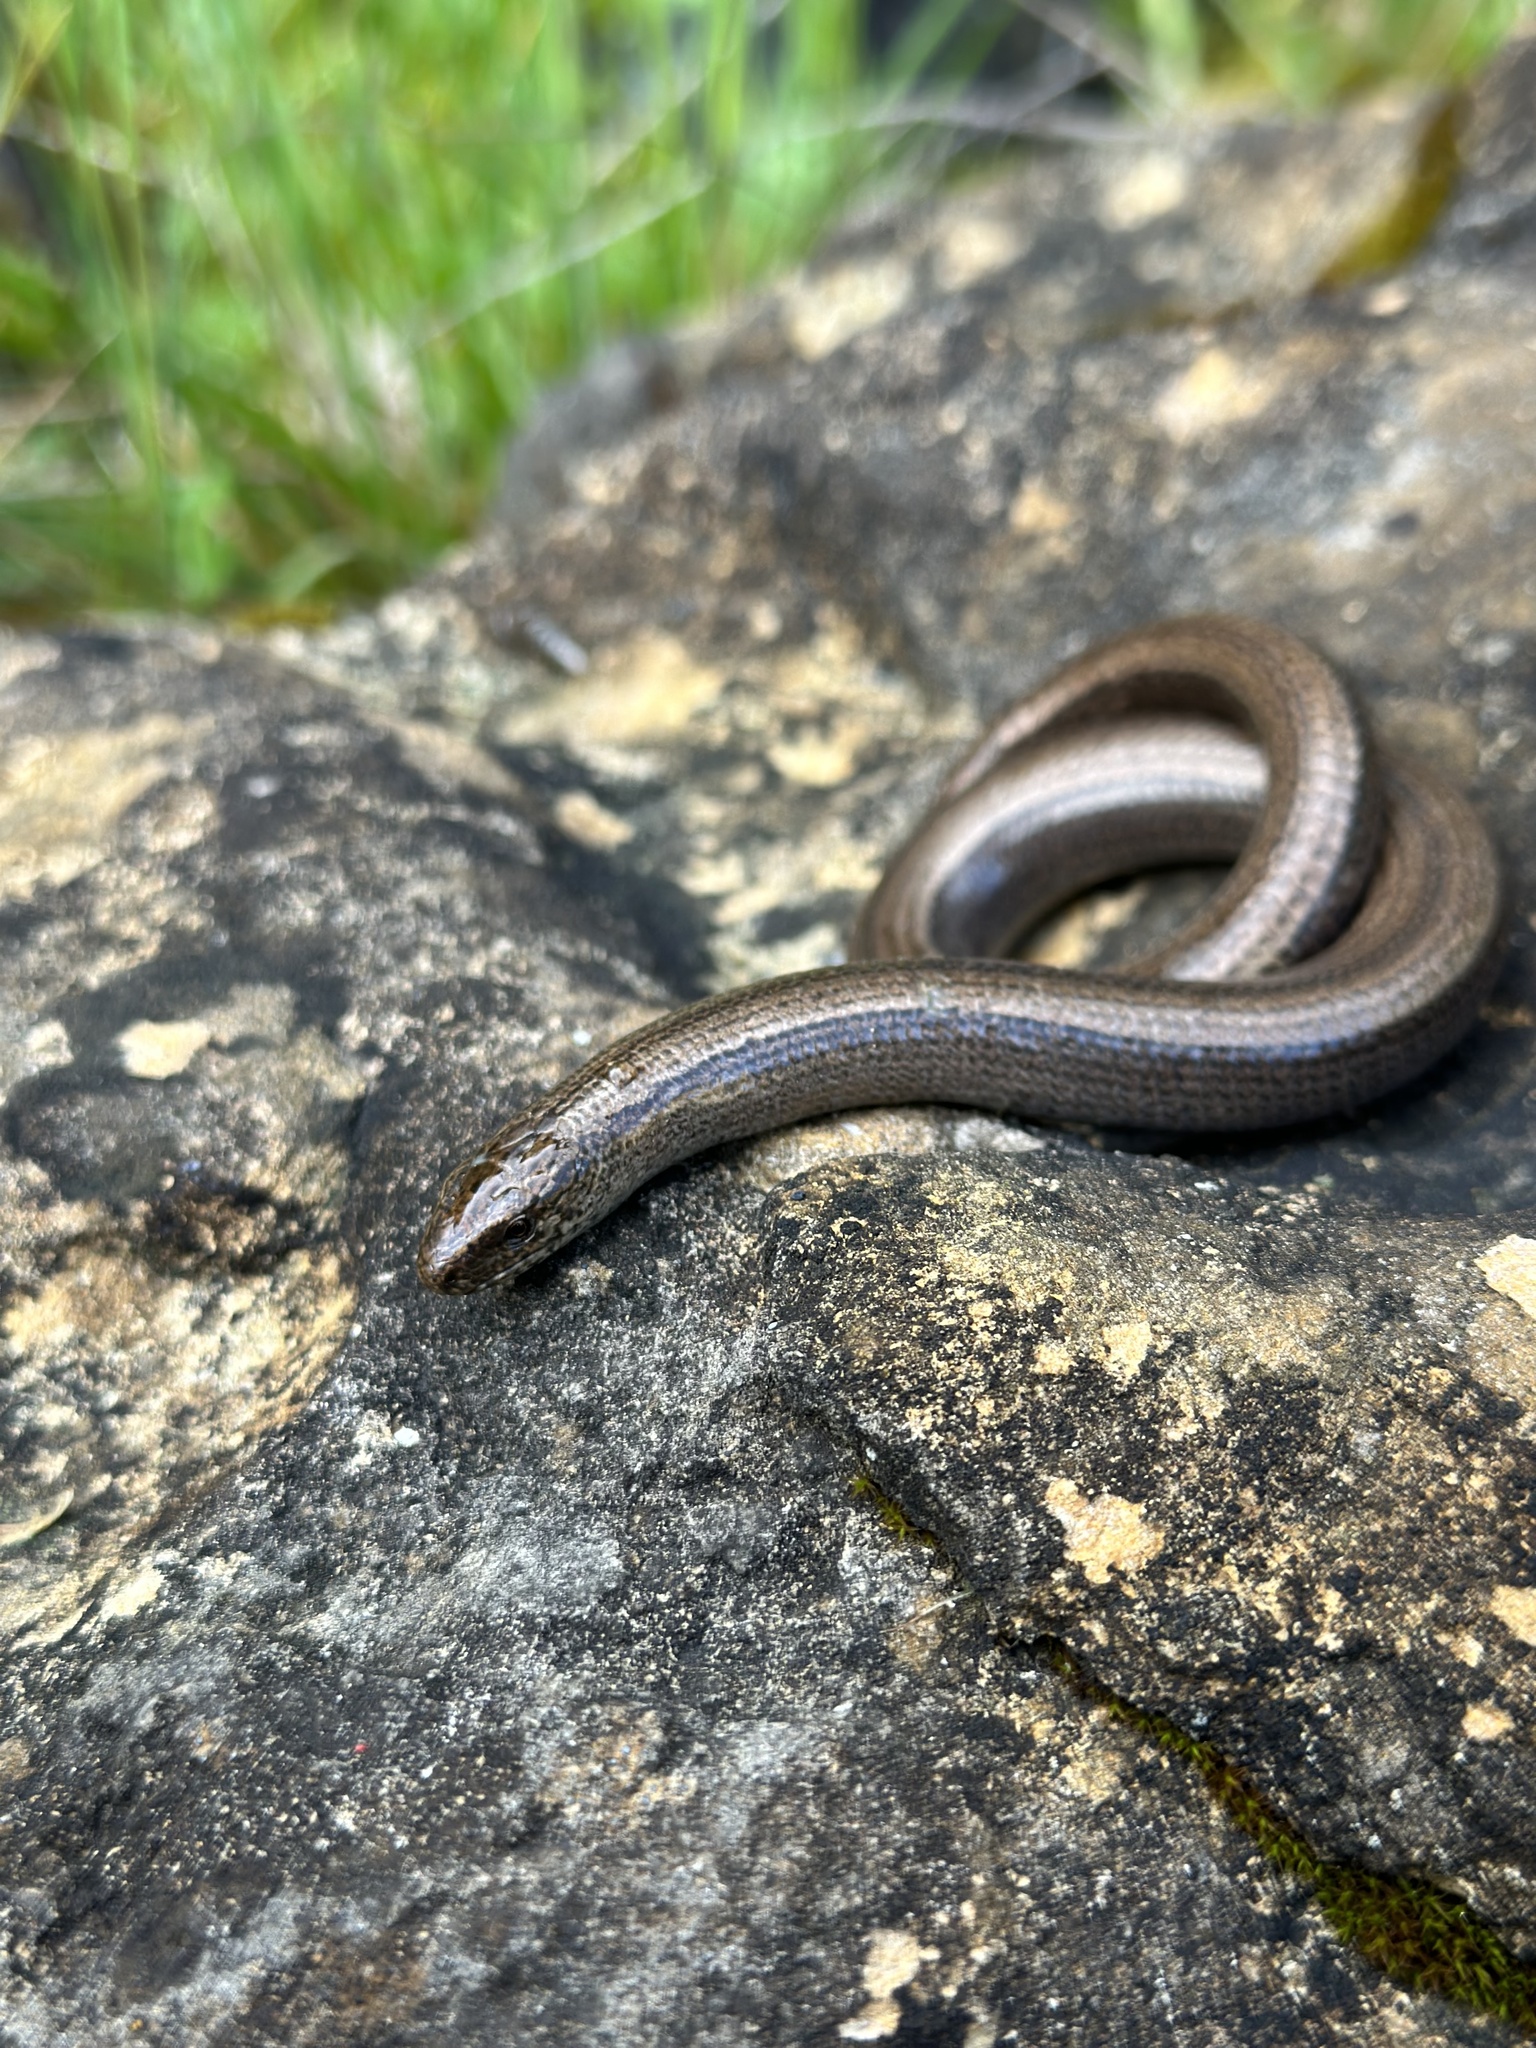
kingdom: Animalia
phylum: Chordata
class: Squamata
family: Anguidae
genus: Anguis
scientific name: Anguis fragilis
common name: Slow worm
